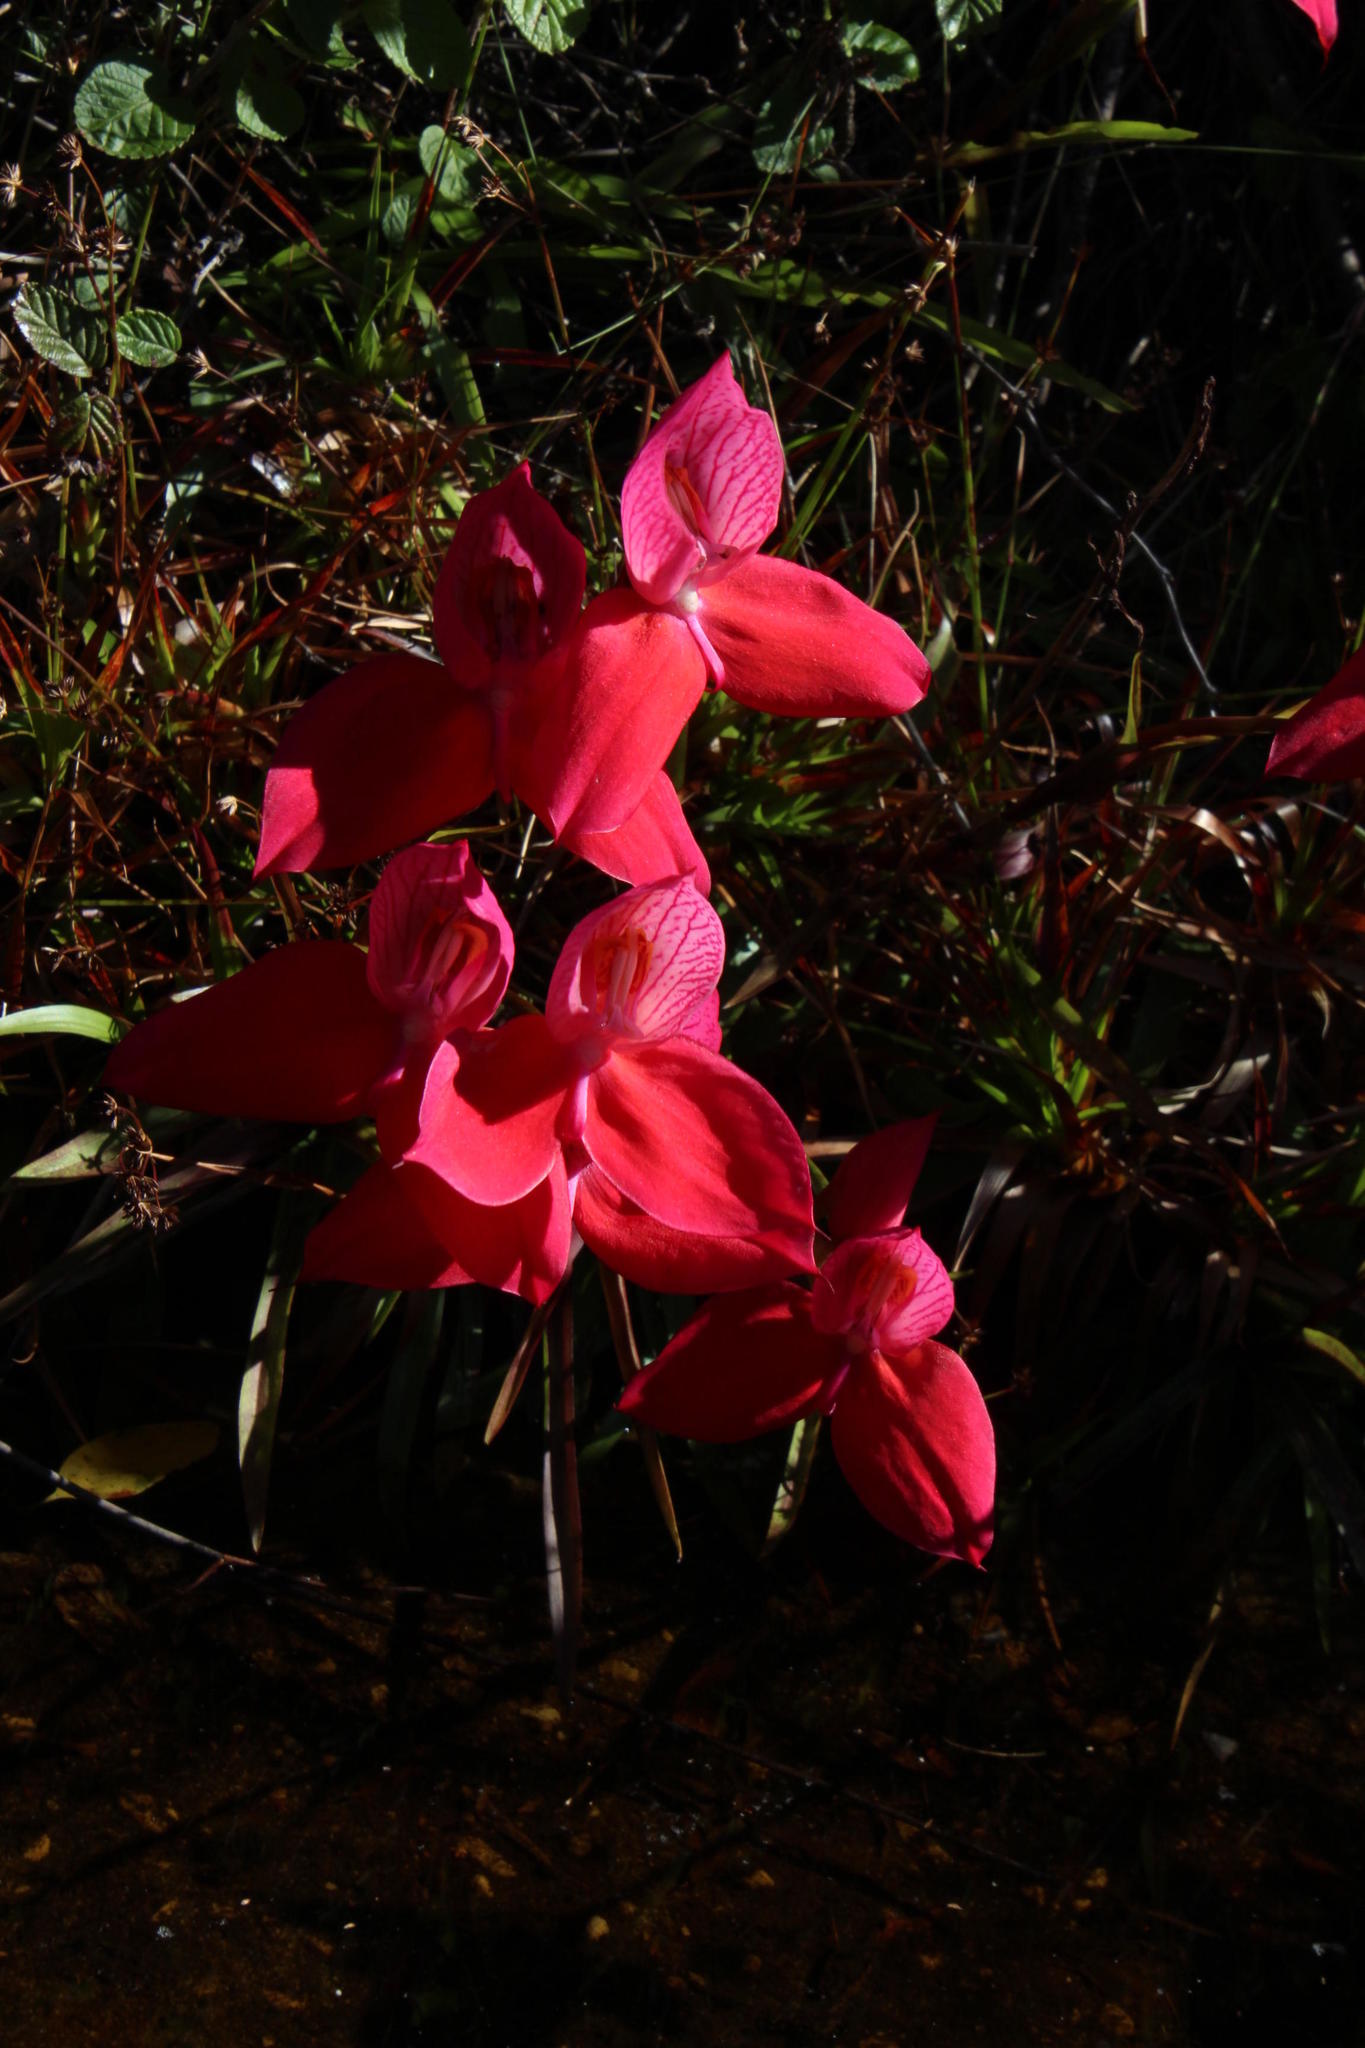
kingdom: Plantae
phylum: Tracheophyta
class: Liliopsida
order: Asparagales
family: Orchidaceae
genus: Disa
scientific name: Disa uniflora
